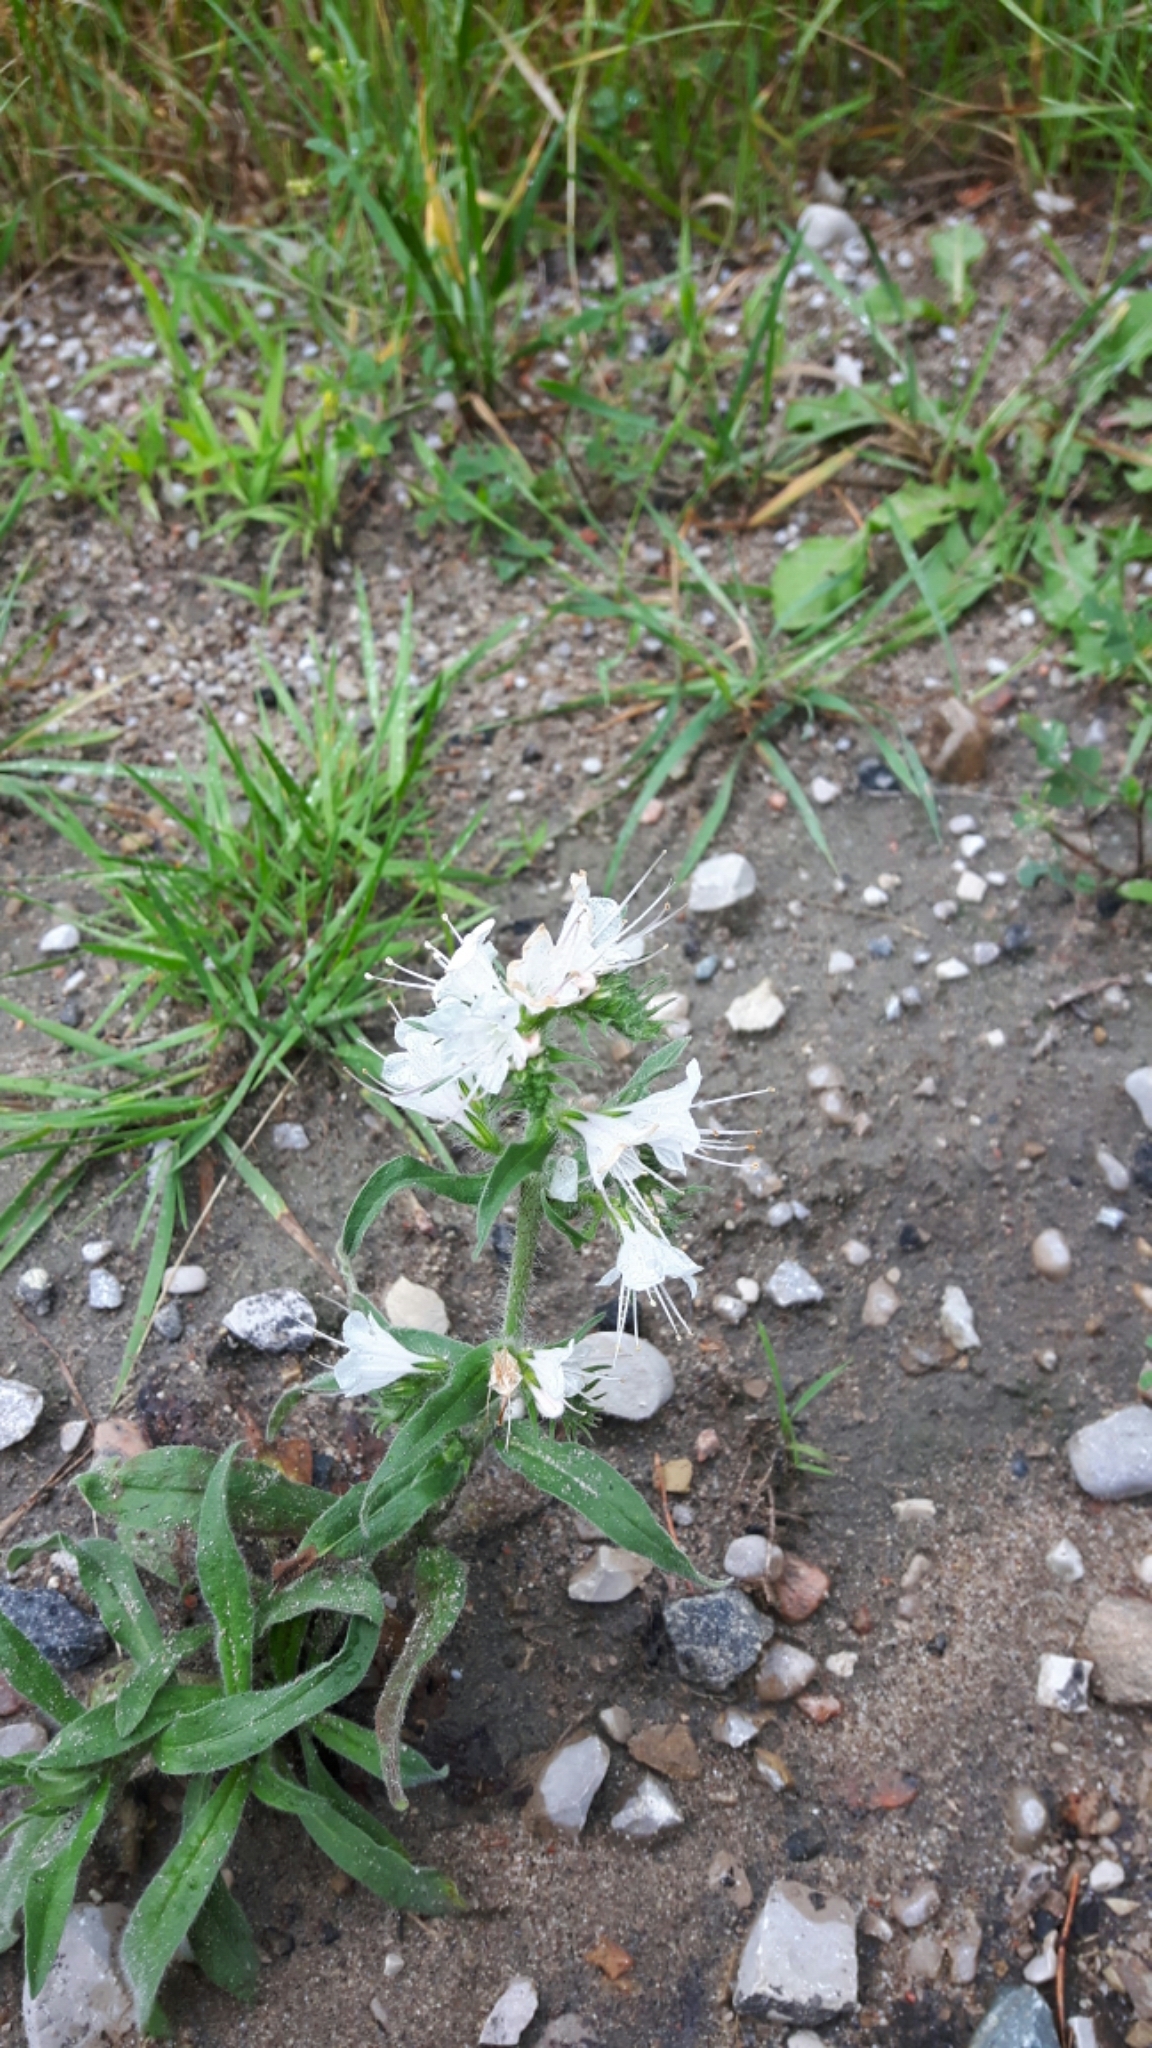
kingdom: Plantae
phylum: Tracheophyta
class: Magnoliopsida
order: Boraginales
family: Boraginaceae
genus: Echium
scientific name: Echium vulgare
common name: Common viper's bugloss
